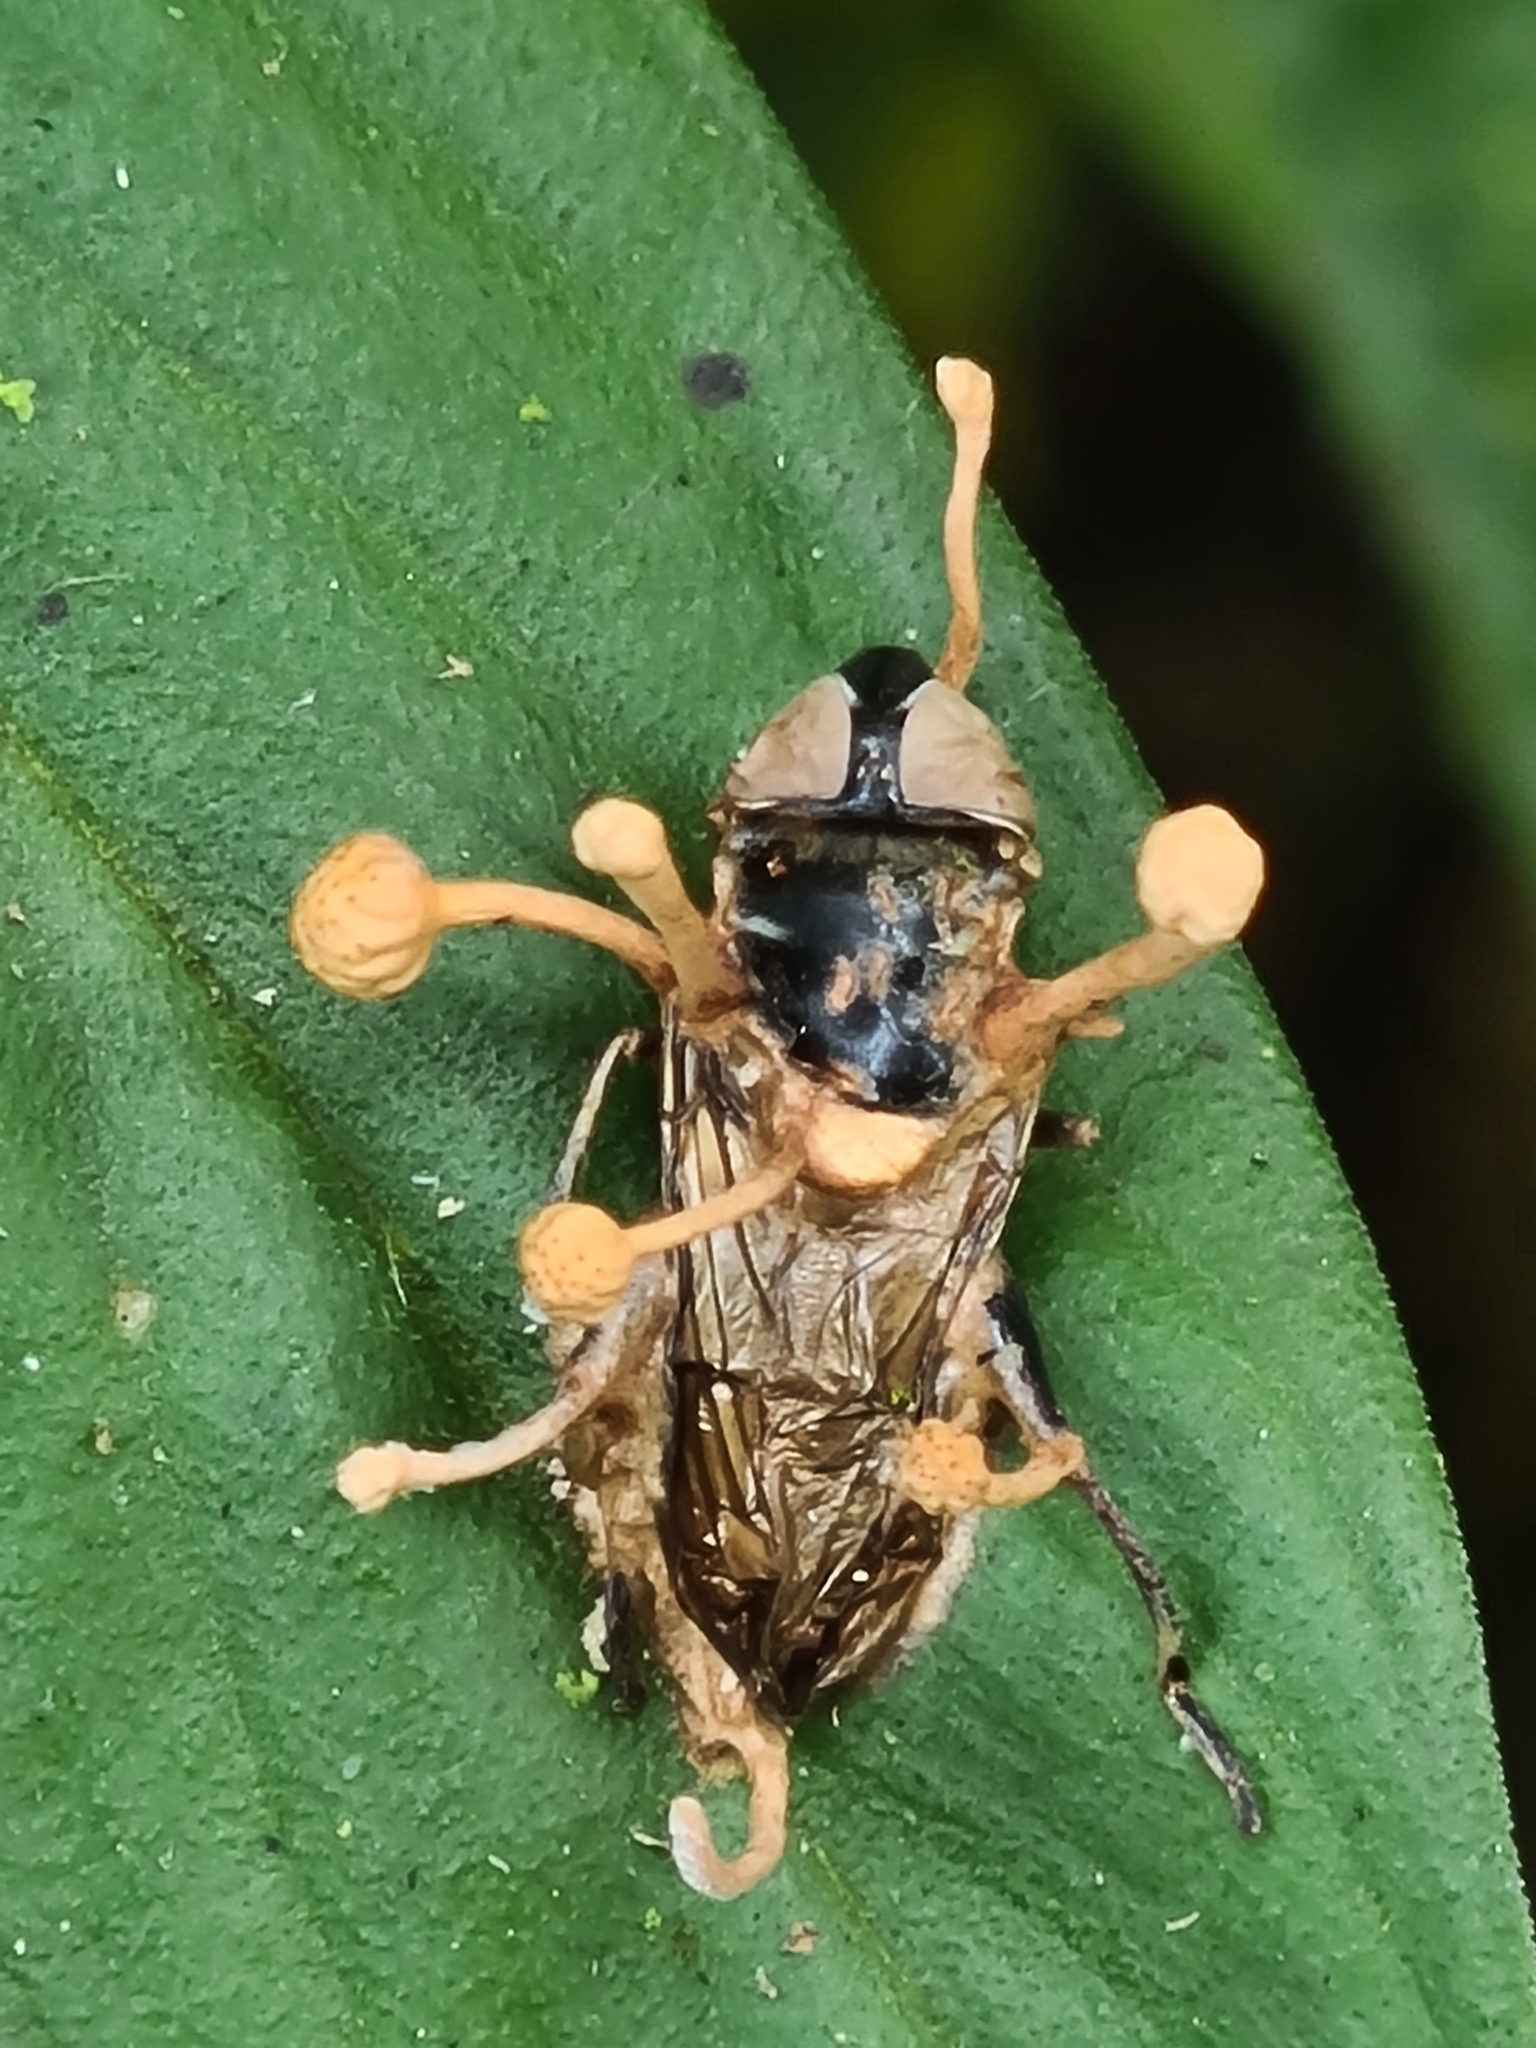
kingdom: Fungi
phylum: Ascomycota
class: Sordariomycetes
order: Hypocreales
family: Ophiocordycipitaceae
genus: Ophiocordyceps
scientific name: Ophiocordyceps dipterigena
